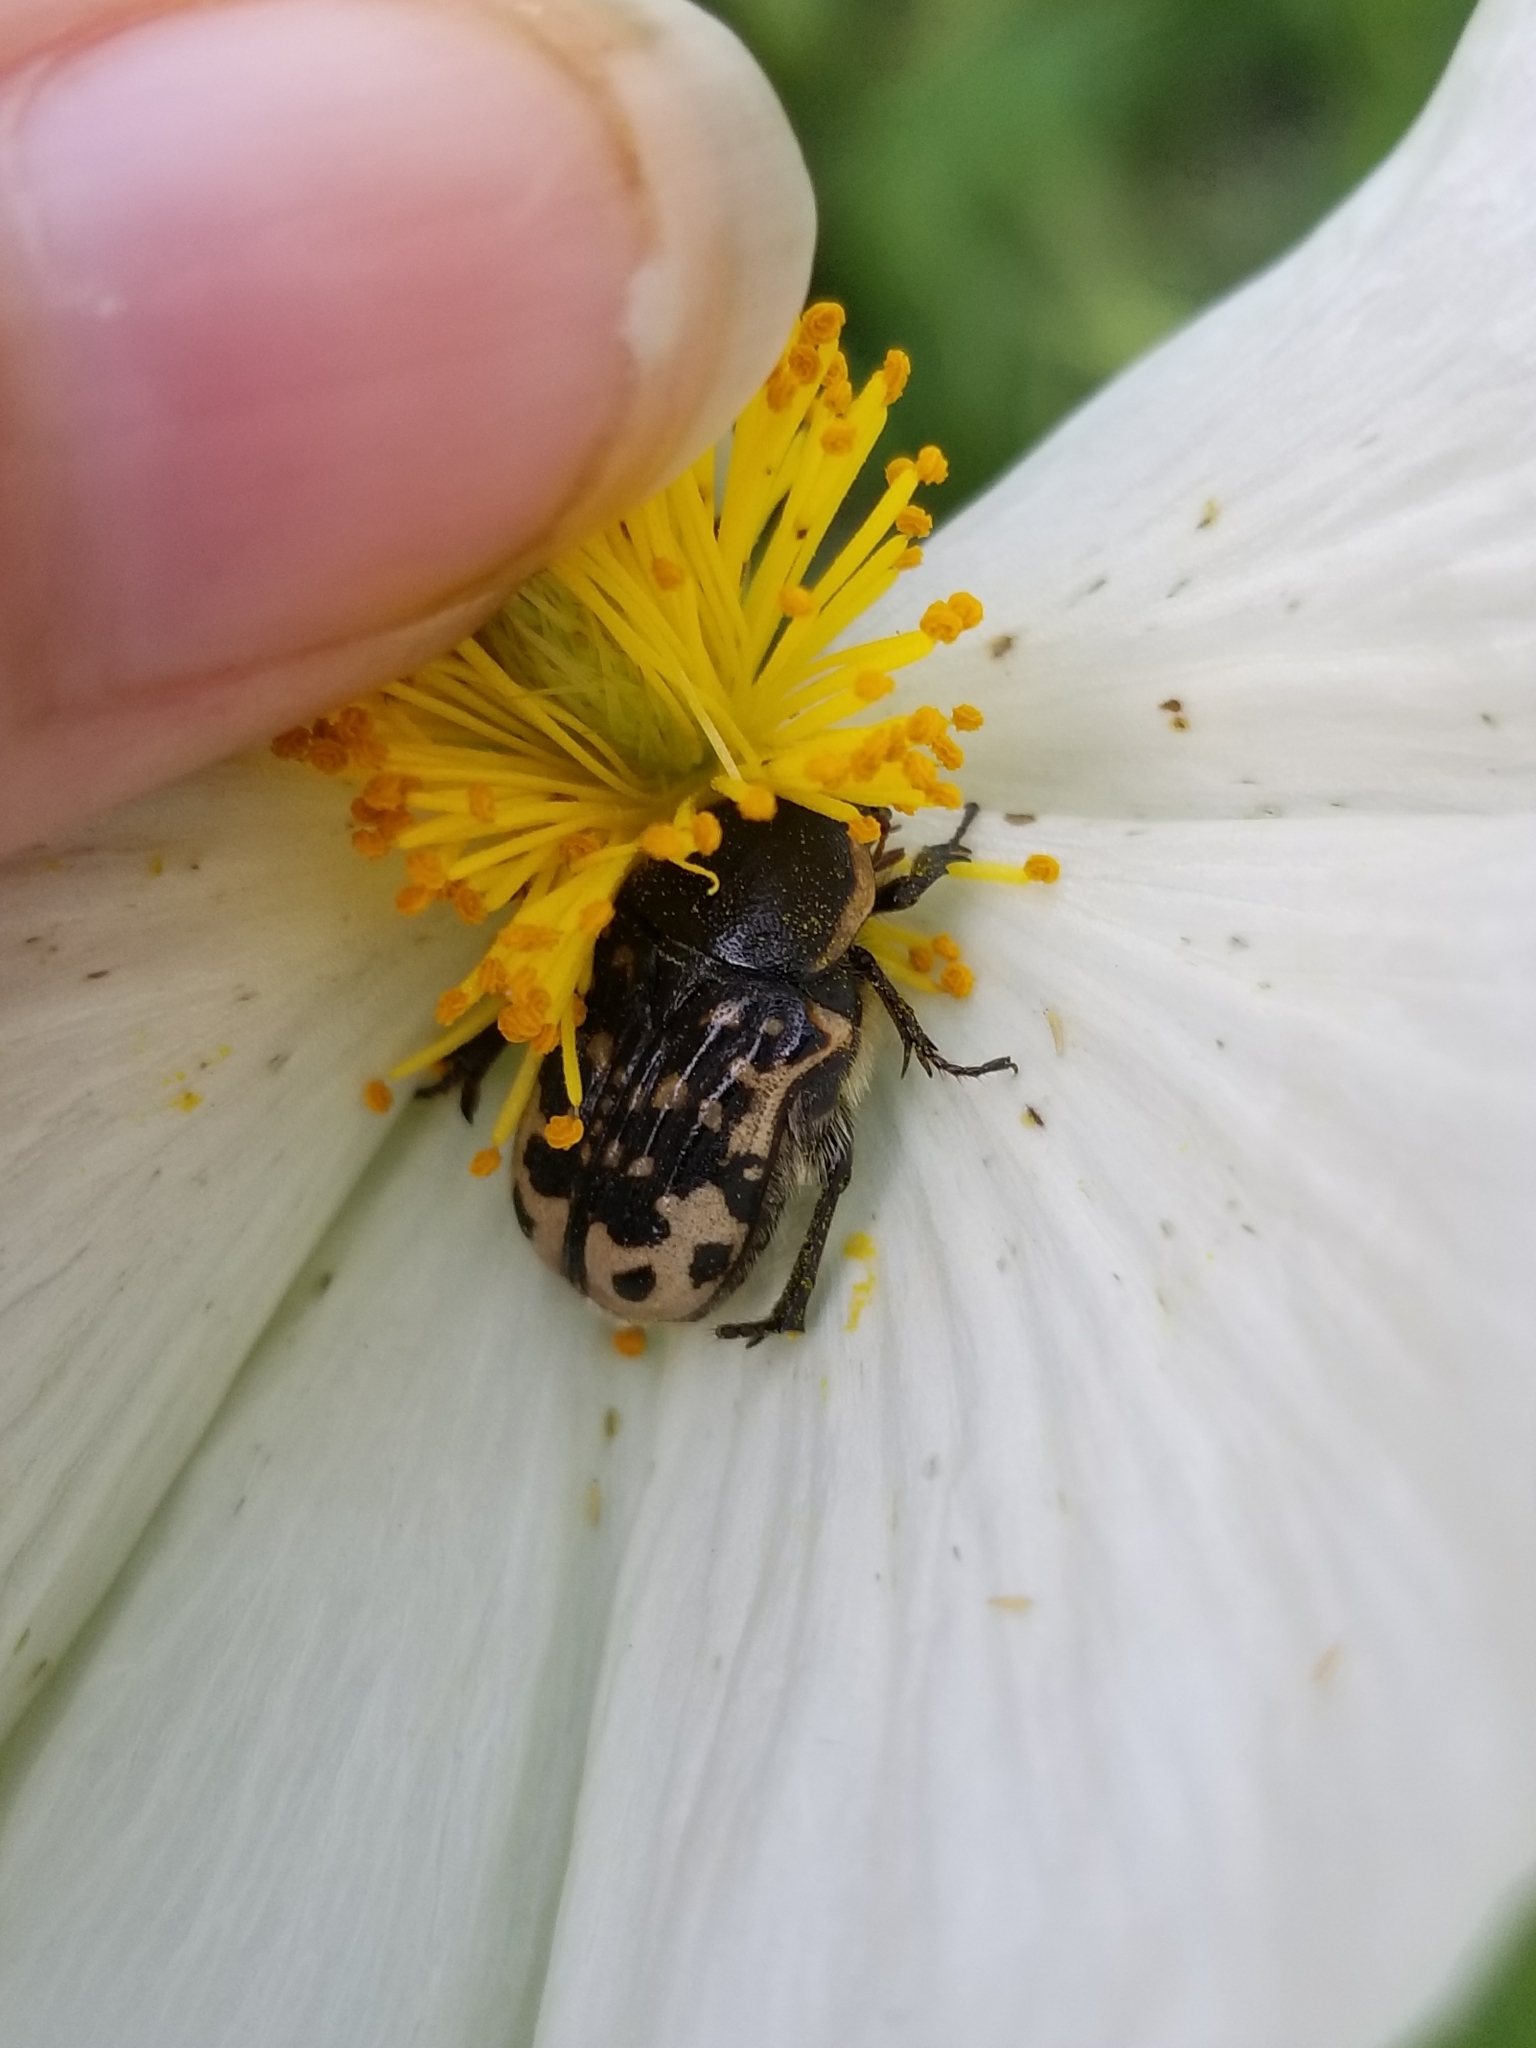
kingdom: Animalia
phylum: Arthropoda
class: Insecta
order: Coleoptera
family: Scarabaeidae
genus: Euphoria
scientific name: Euphoria kernii
